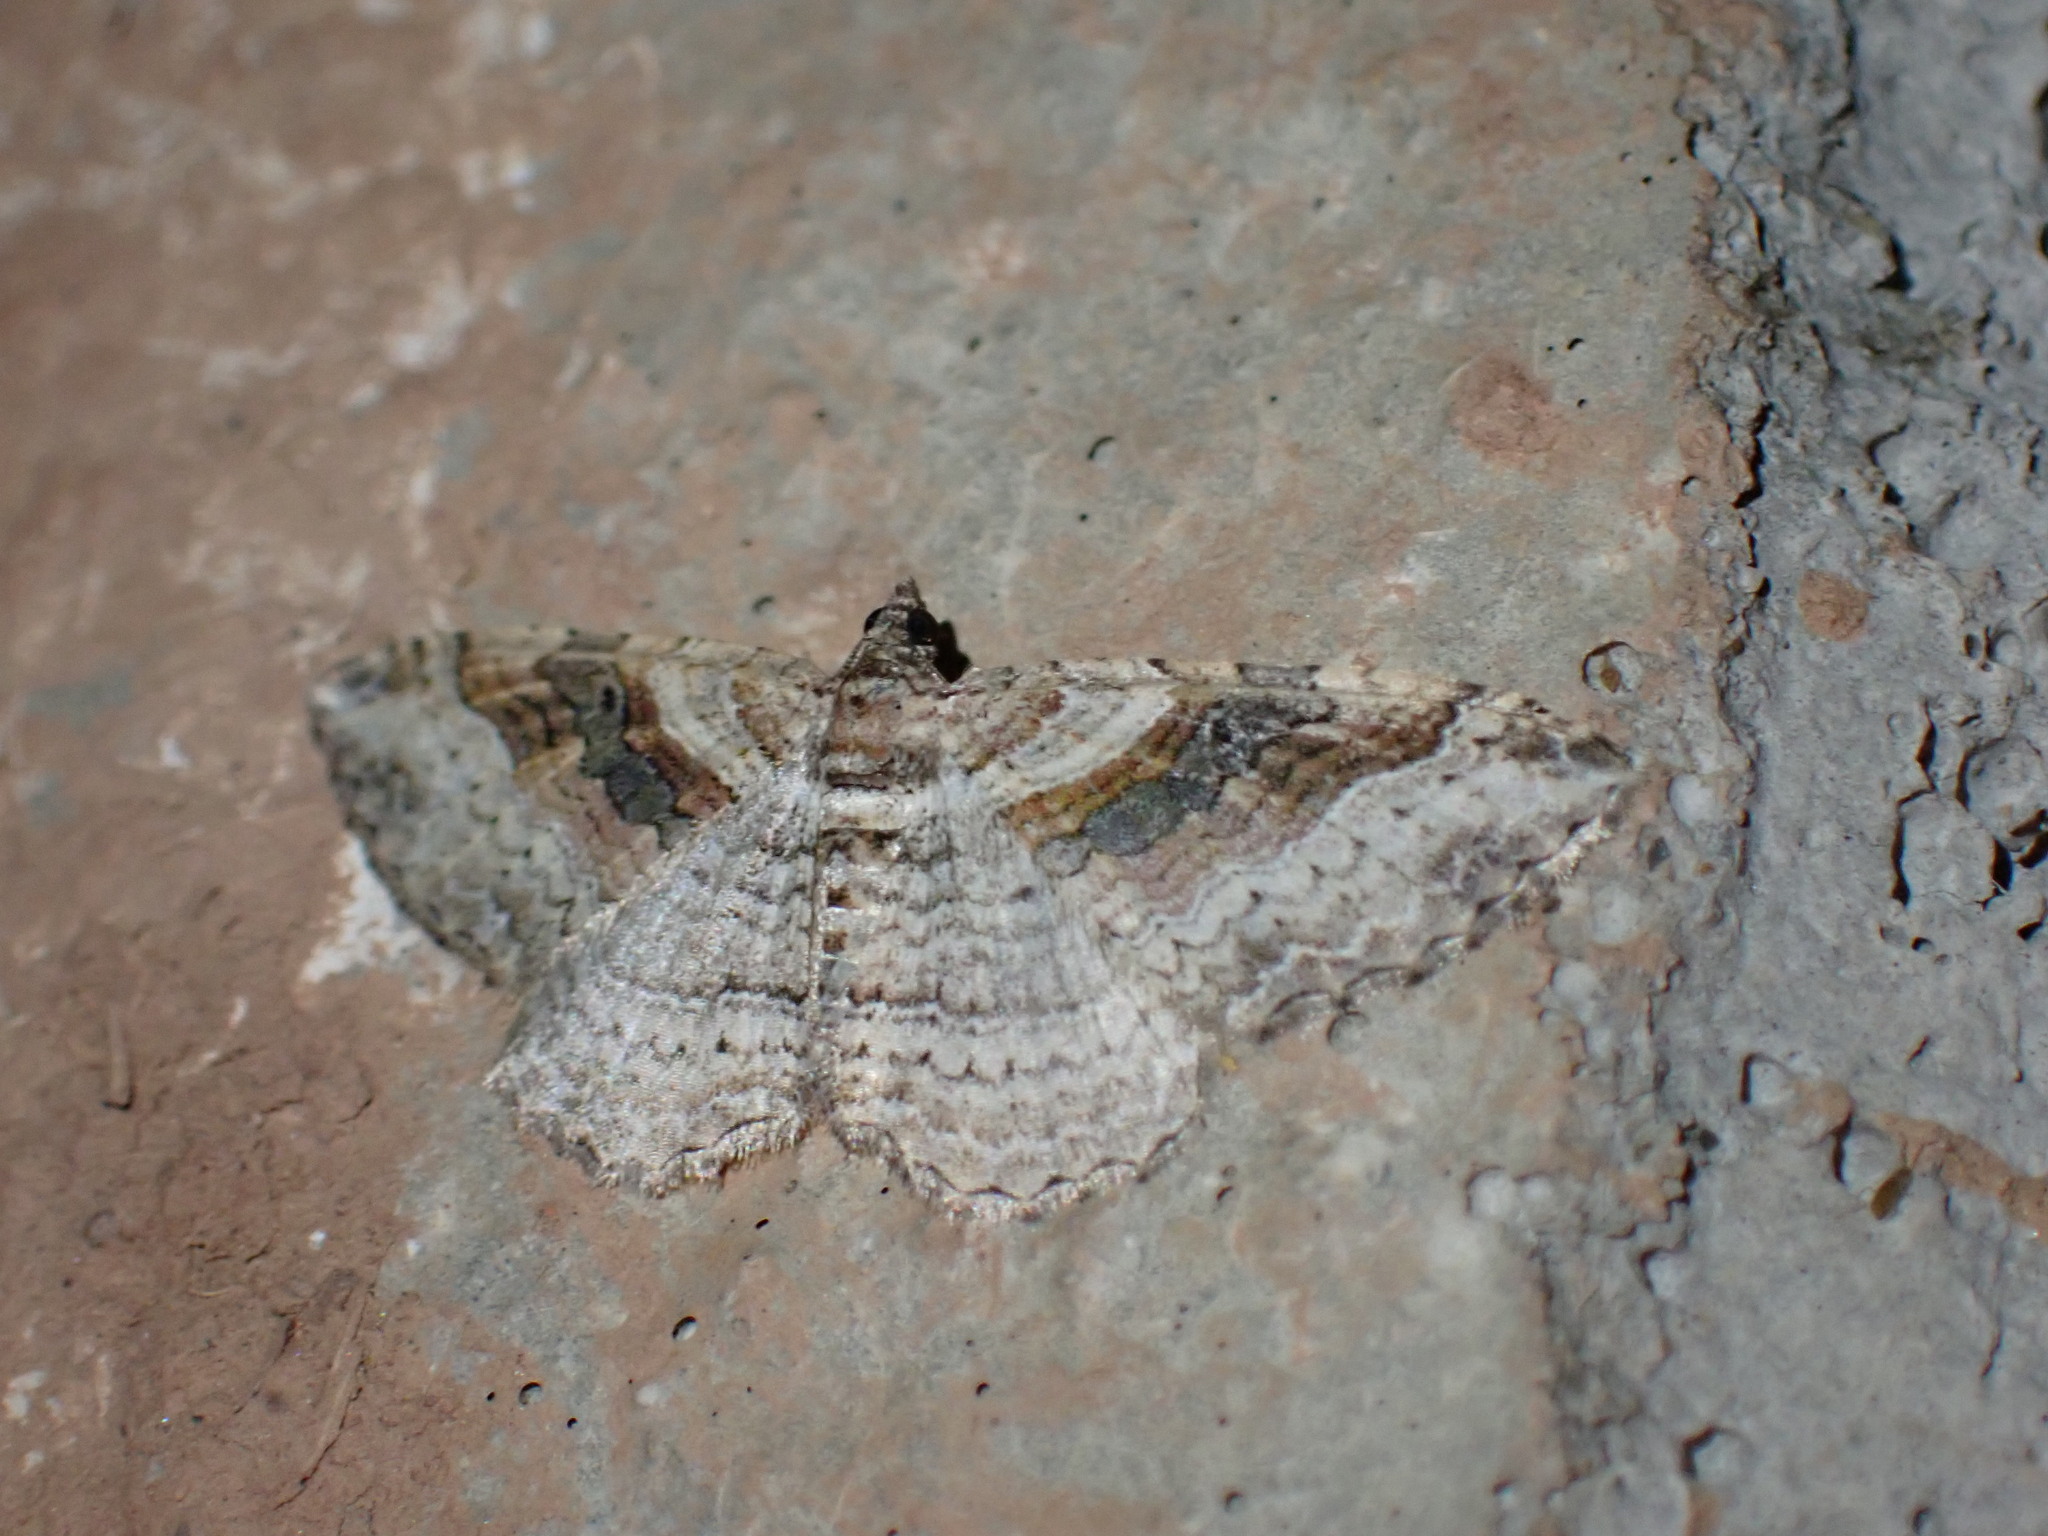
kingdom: Animalia
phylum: Arthropoda
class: Insecta
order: Lepidoptera
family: Geometridae
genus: Costaconvexa
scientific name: Costaconvexa centrostrigaria
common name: Bent-line carpet
